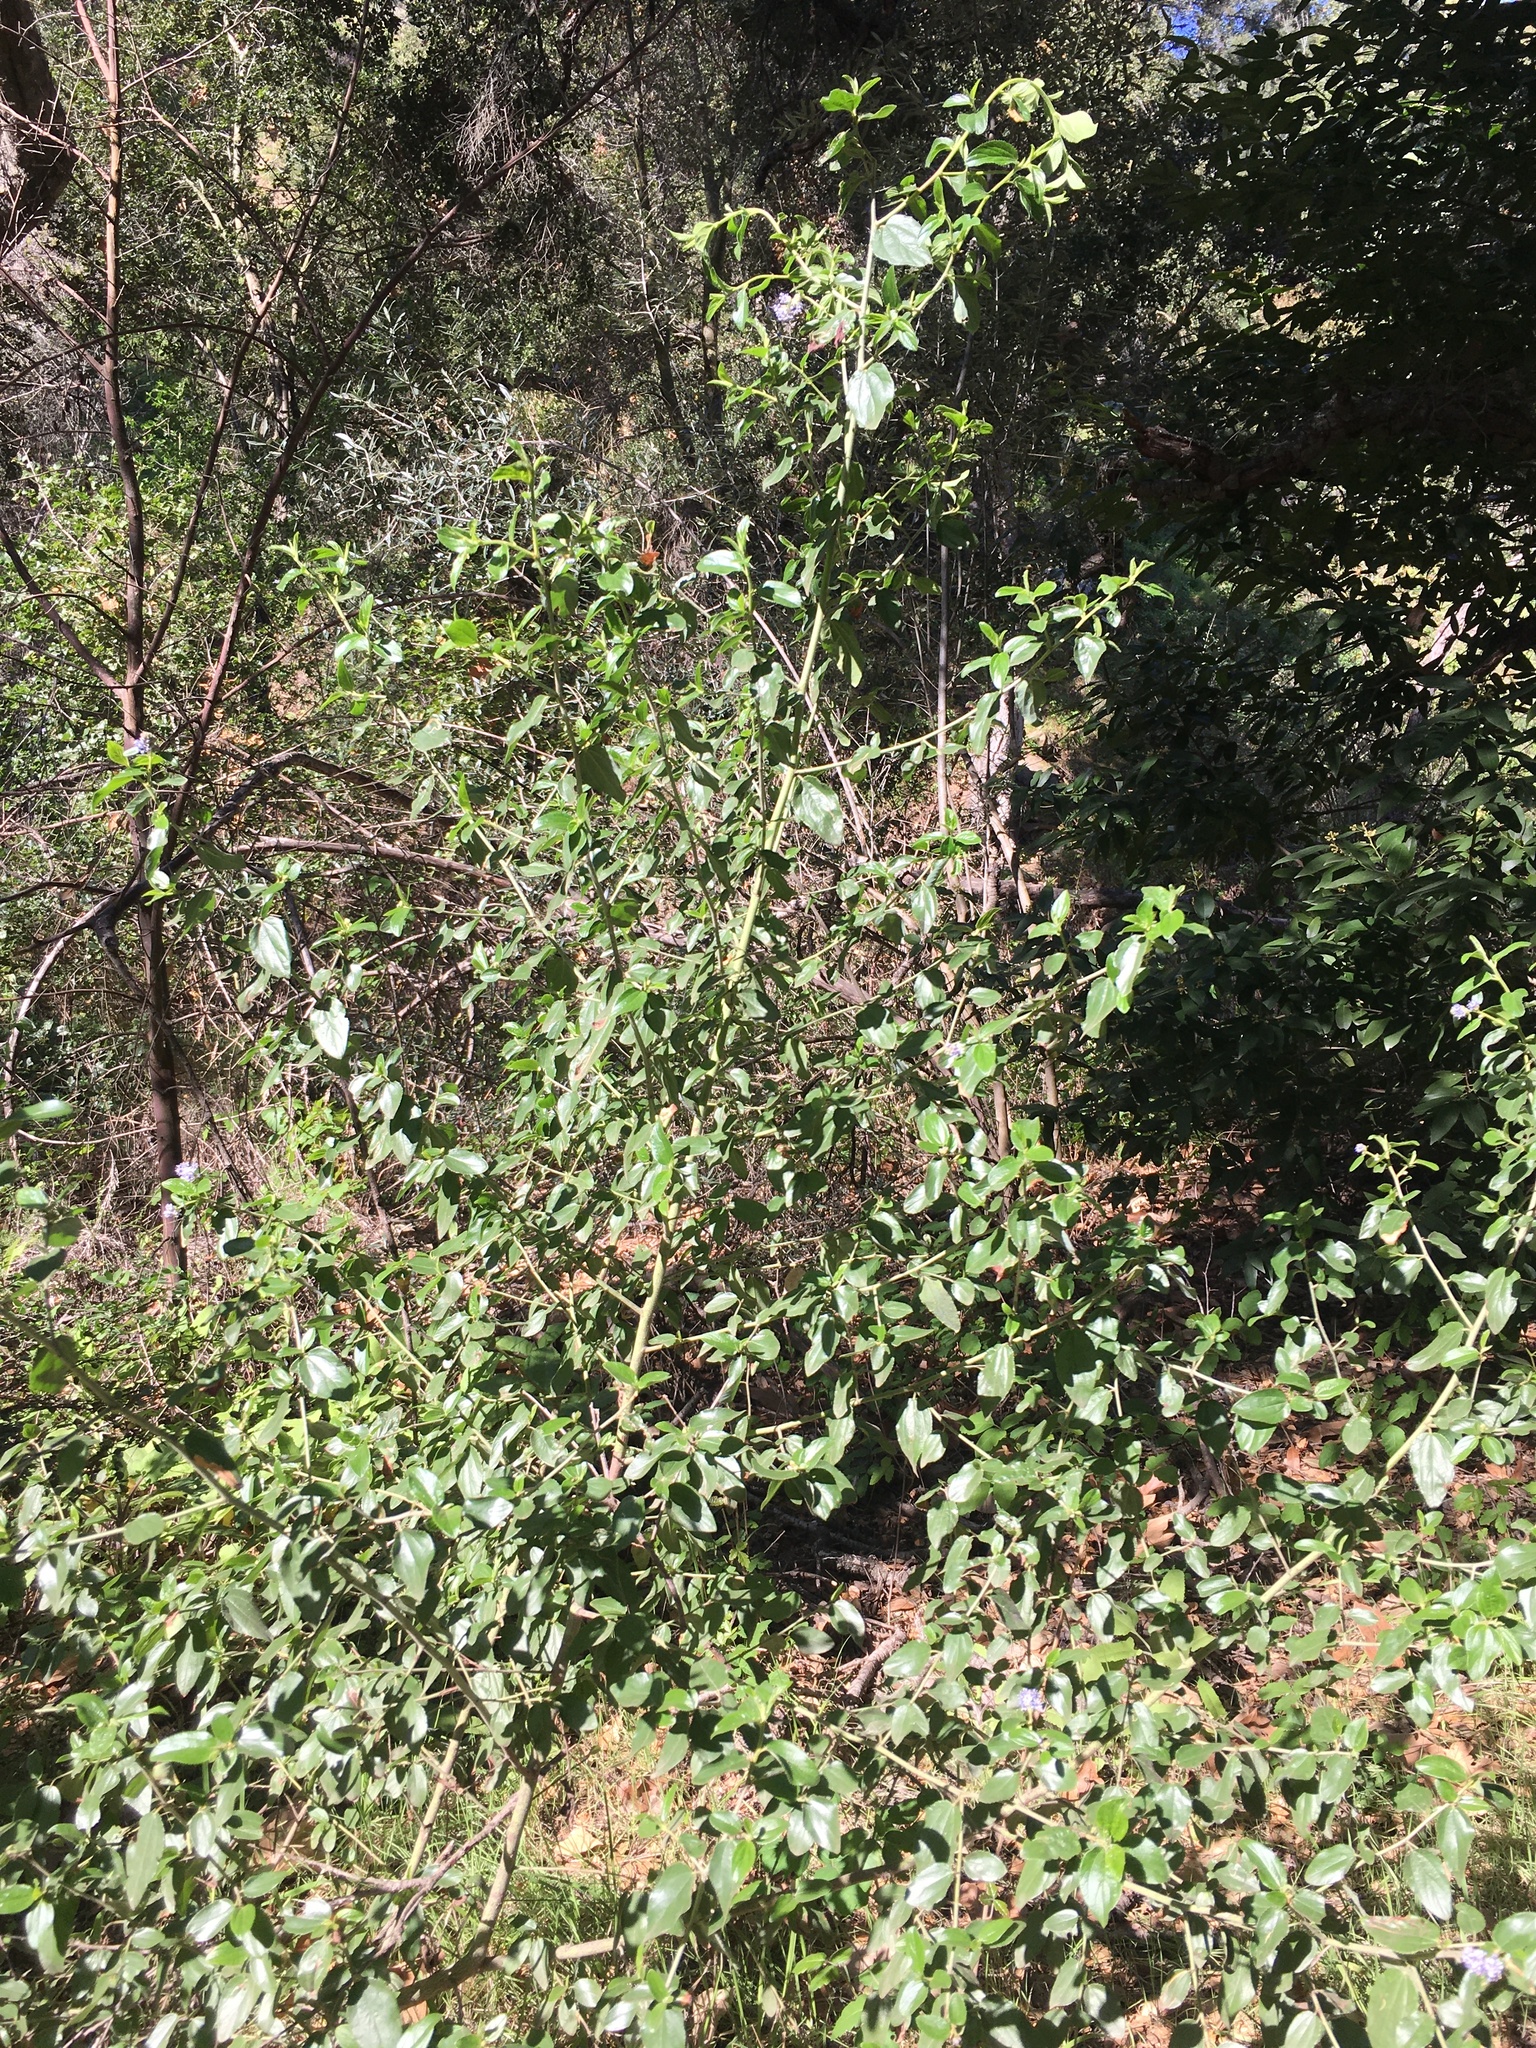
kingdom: Plantae
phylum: Tracheophyta
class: Magnoliopsida
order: Rosales
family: Rhamnaceae
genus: Ceanothus
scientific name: Ceanothus oliganthus
